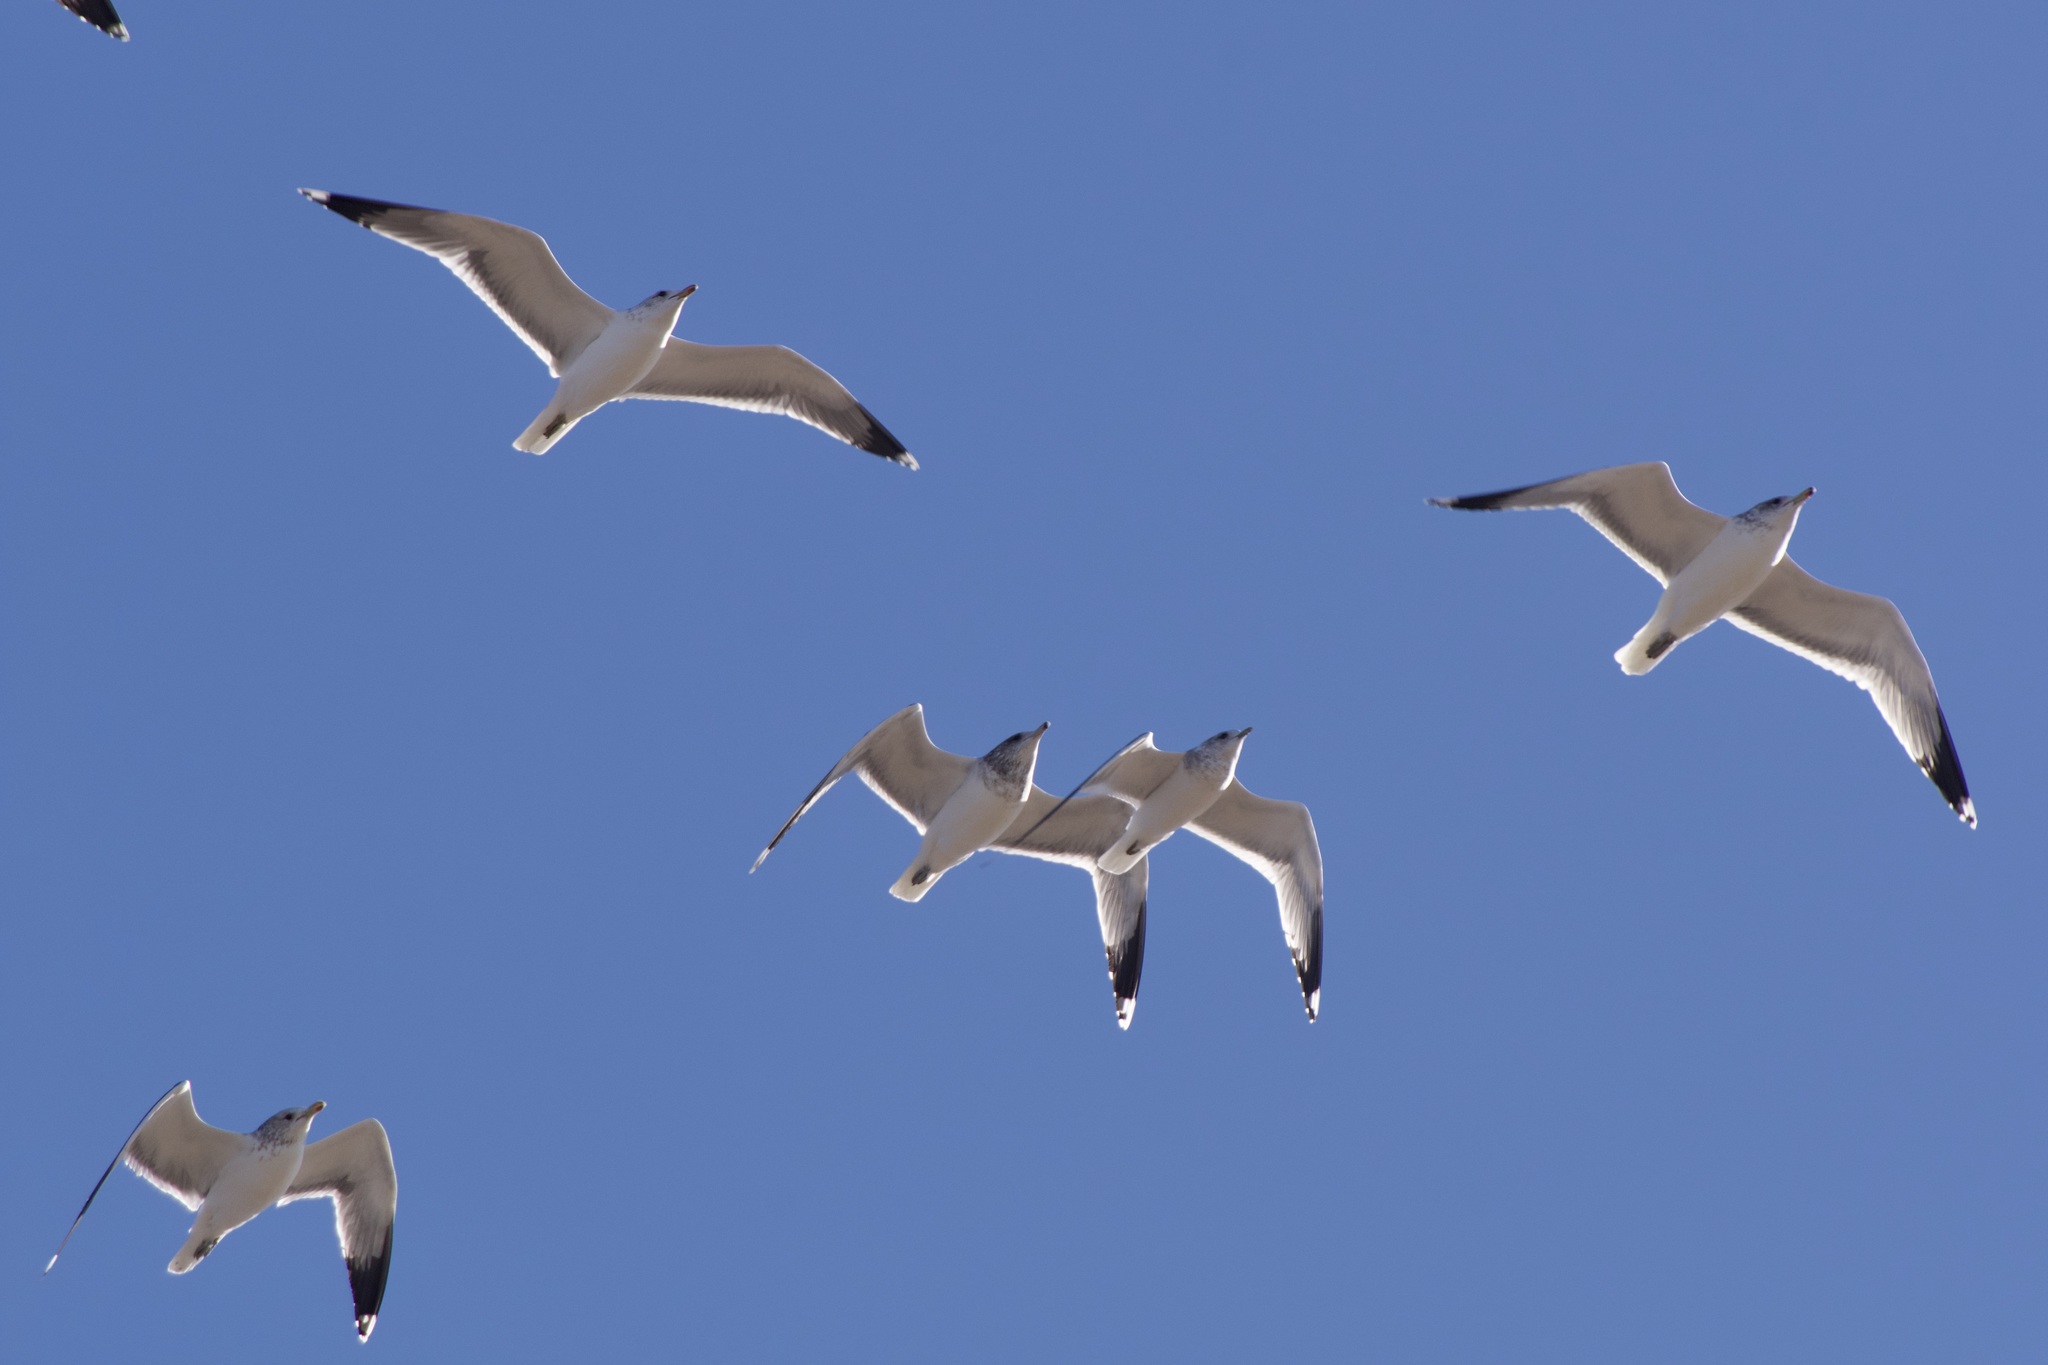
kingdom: Animalia
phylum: Chordata
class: Aves
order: Charadriiformes
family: Laridae
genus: Larus
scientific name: Larus californicus
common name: California gull
